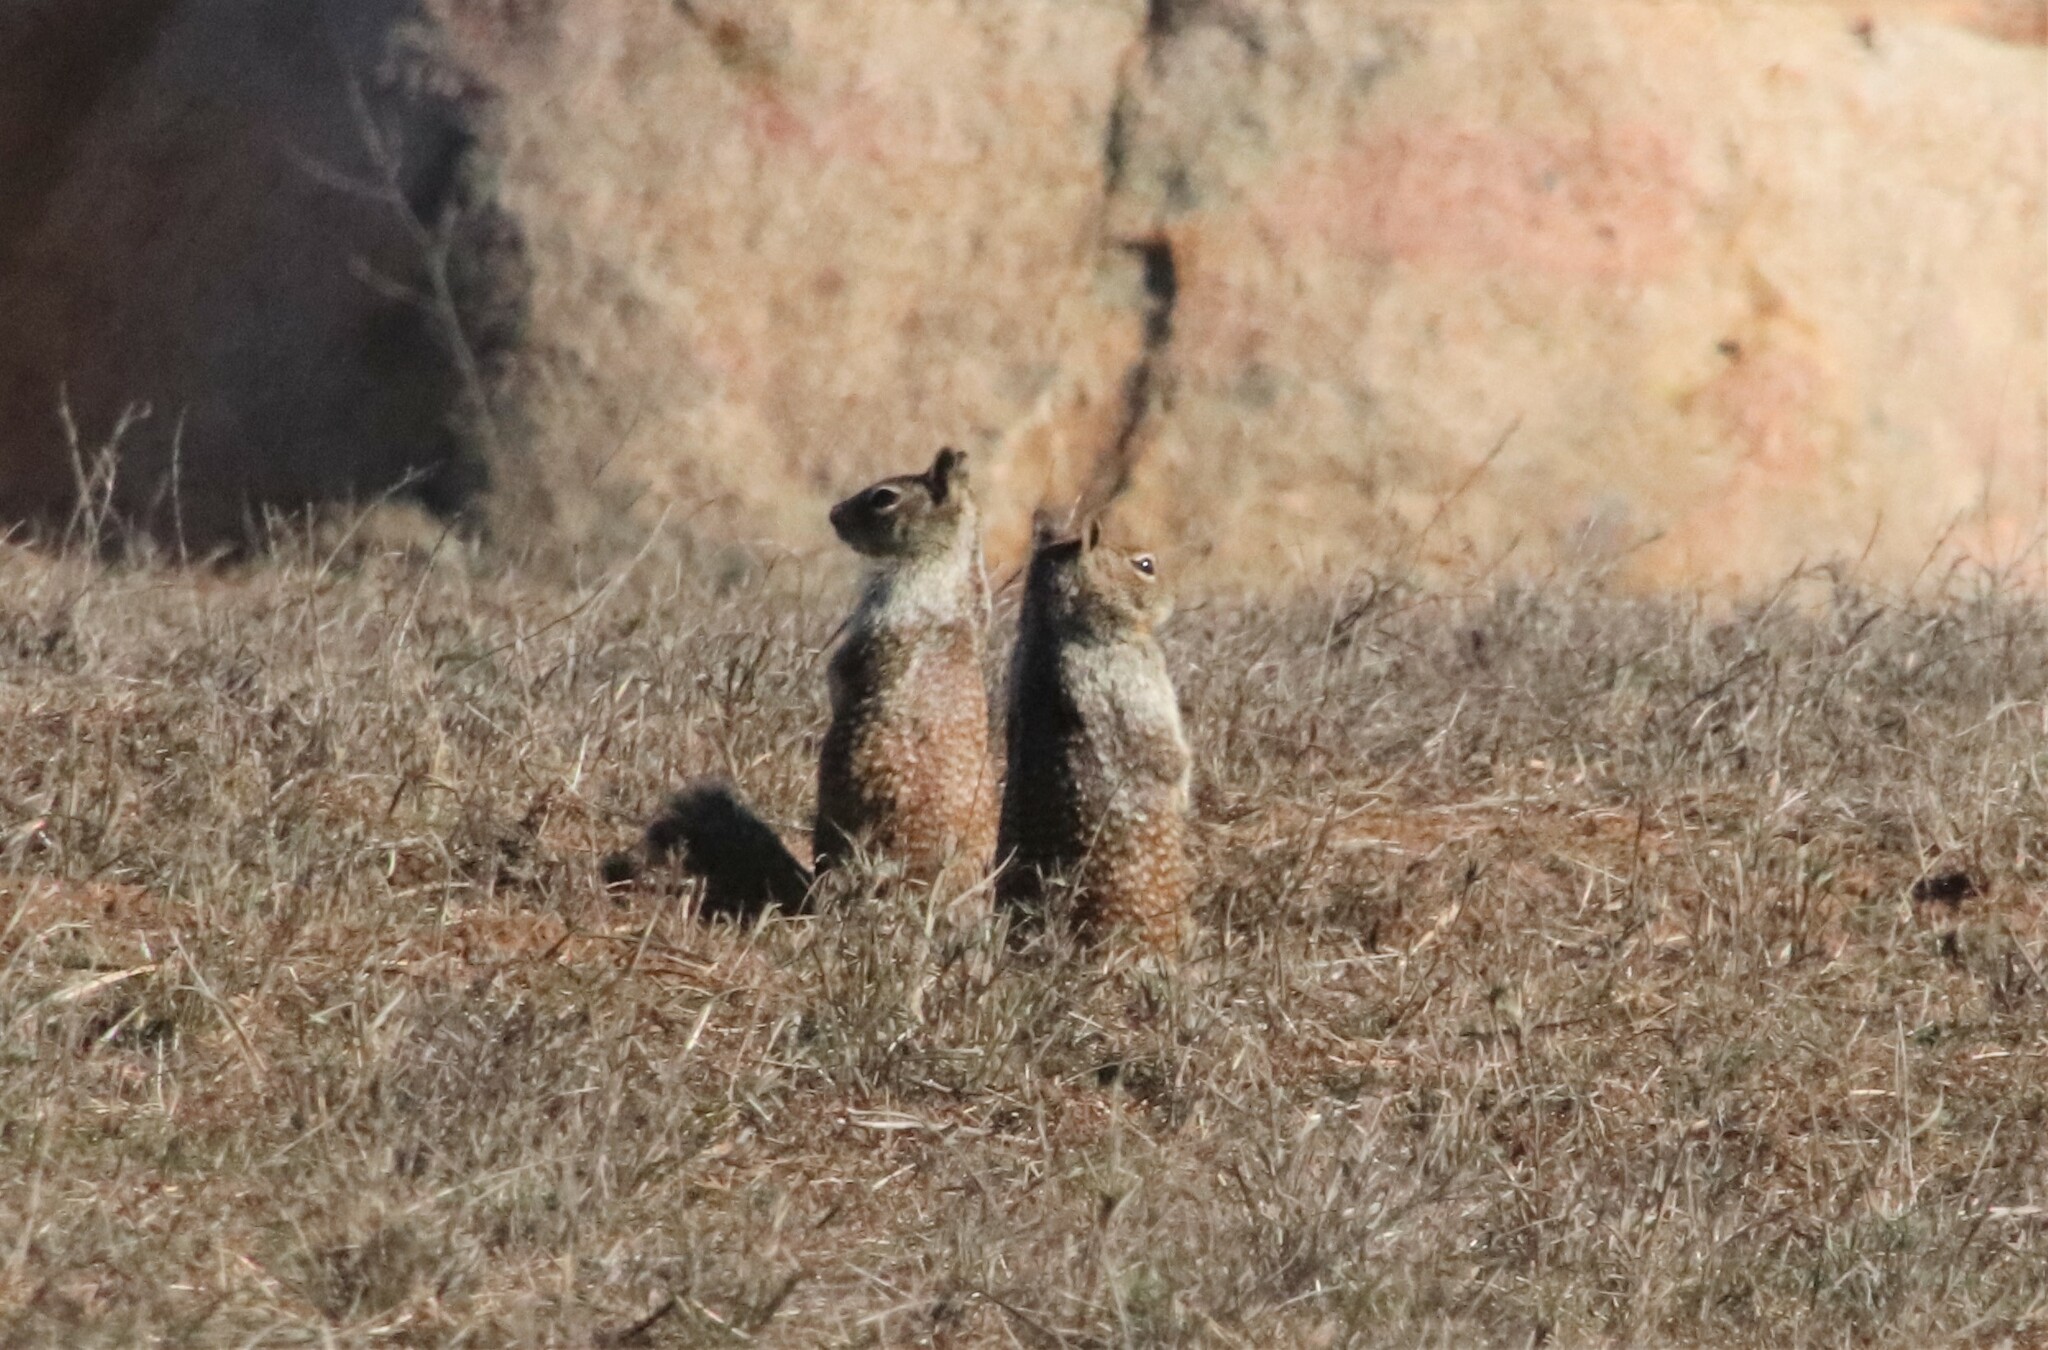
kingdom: Animalia
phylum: Chordata
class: Mammalia
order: Rodentia
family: Sciuridae
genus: Otospermophilus
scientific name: Otospermophilus beecheyi
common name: California ground squirrel
